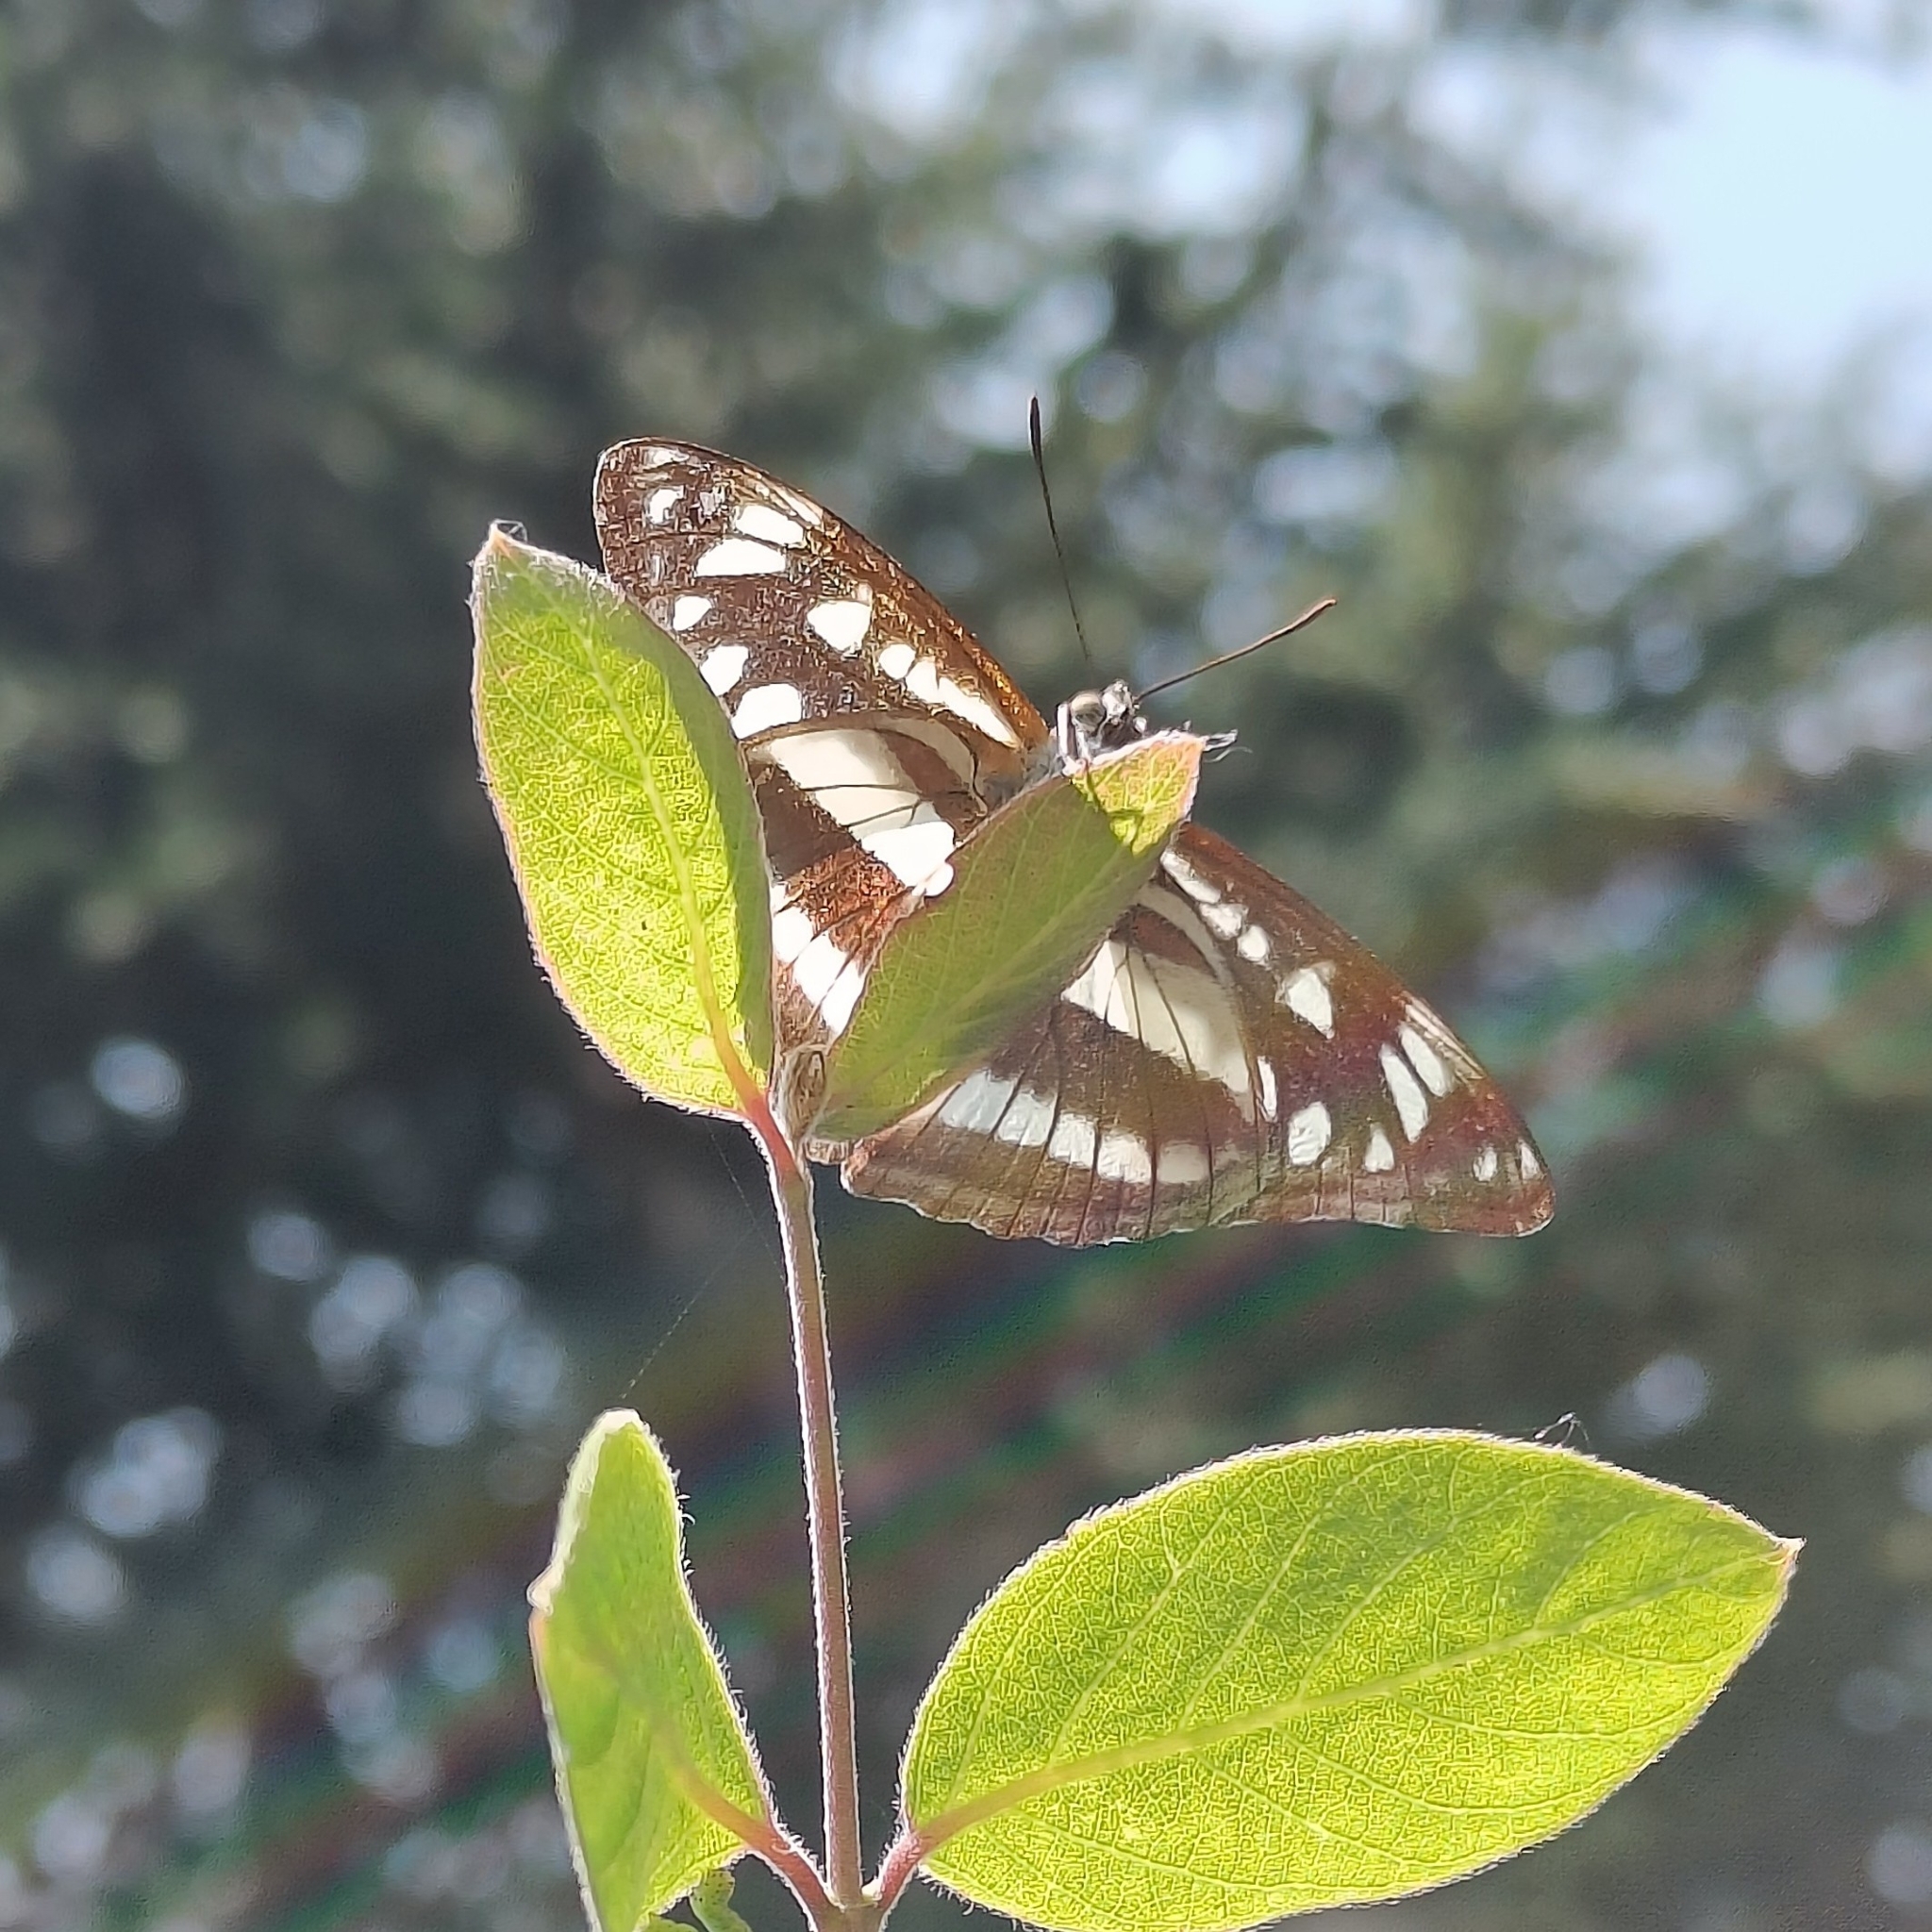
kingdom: Animalia
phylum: Arthropoda
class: Insecta
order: Lepidoptera
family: Nymphalidae
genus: Parathyma
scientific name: Parathyma opalina
